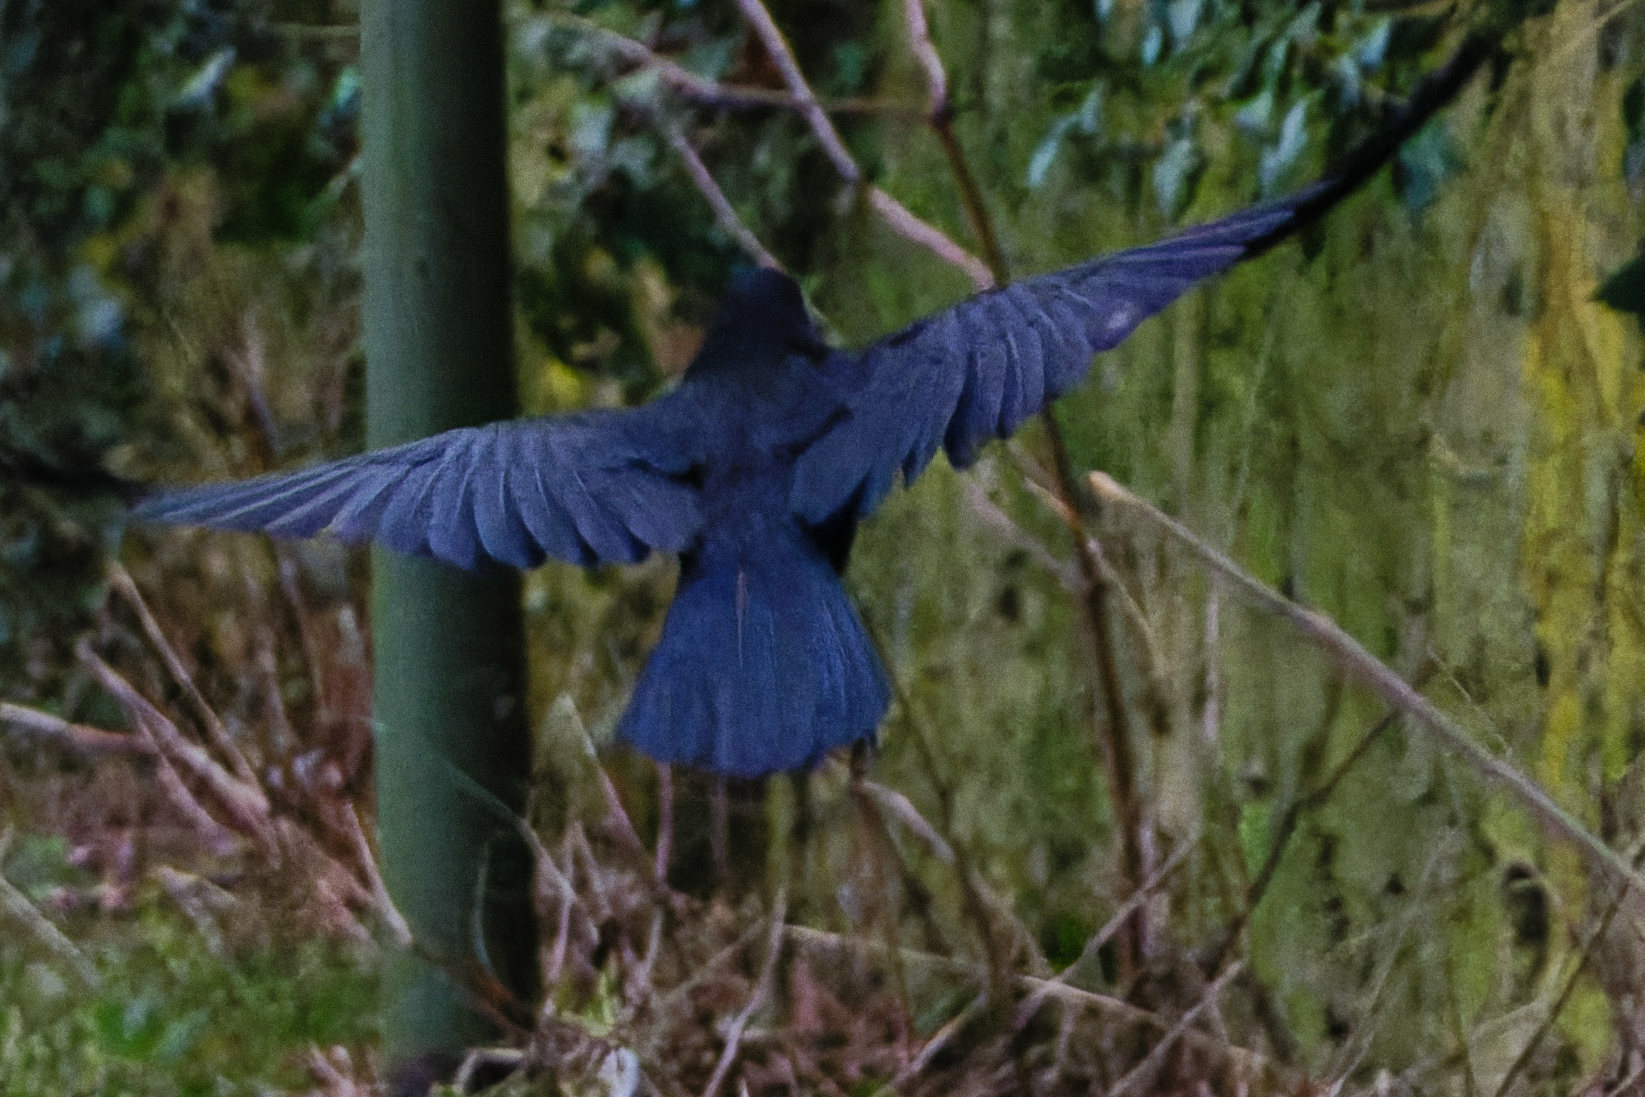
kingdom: Animalia
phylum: Chordata
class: Aves
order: Passeriformes
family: Corvidae
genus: Corvus
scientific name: Corvus corone
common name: Carrion crow
